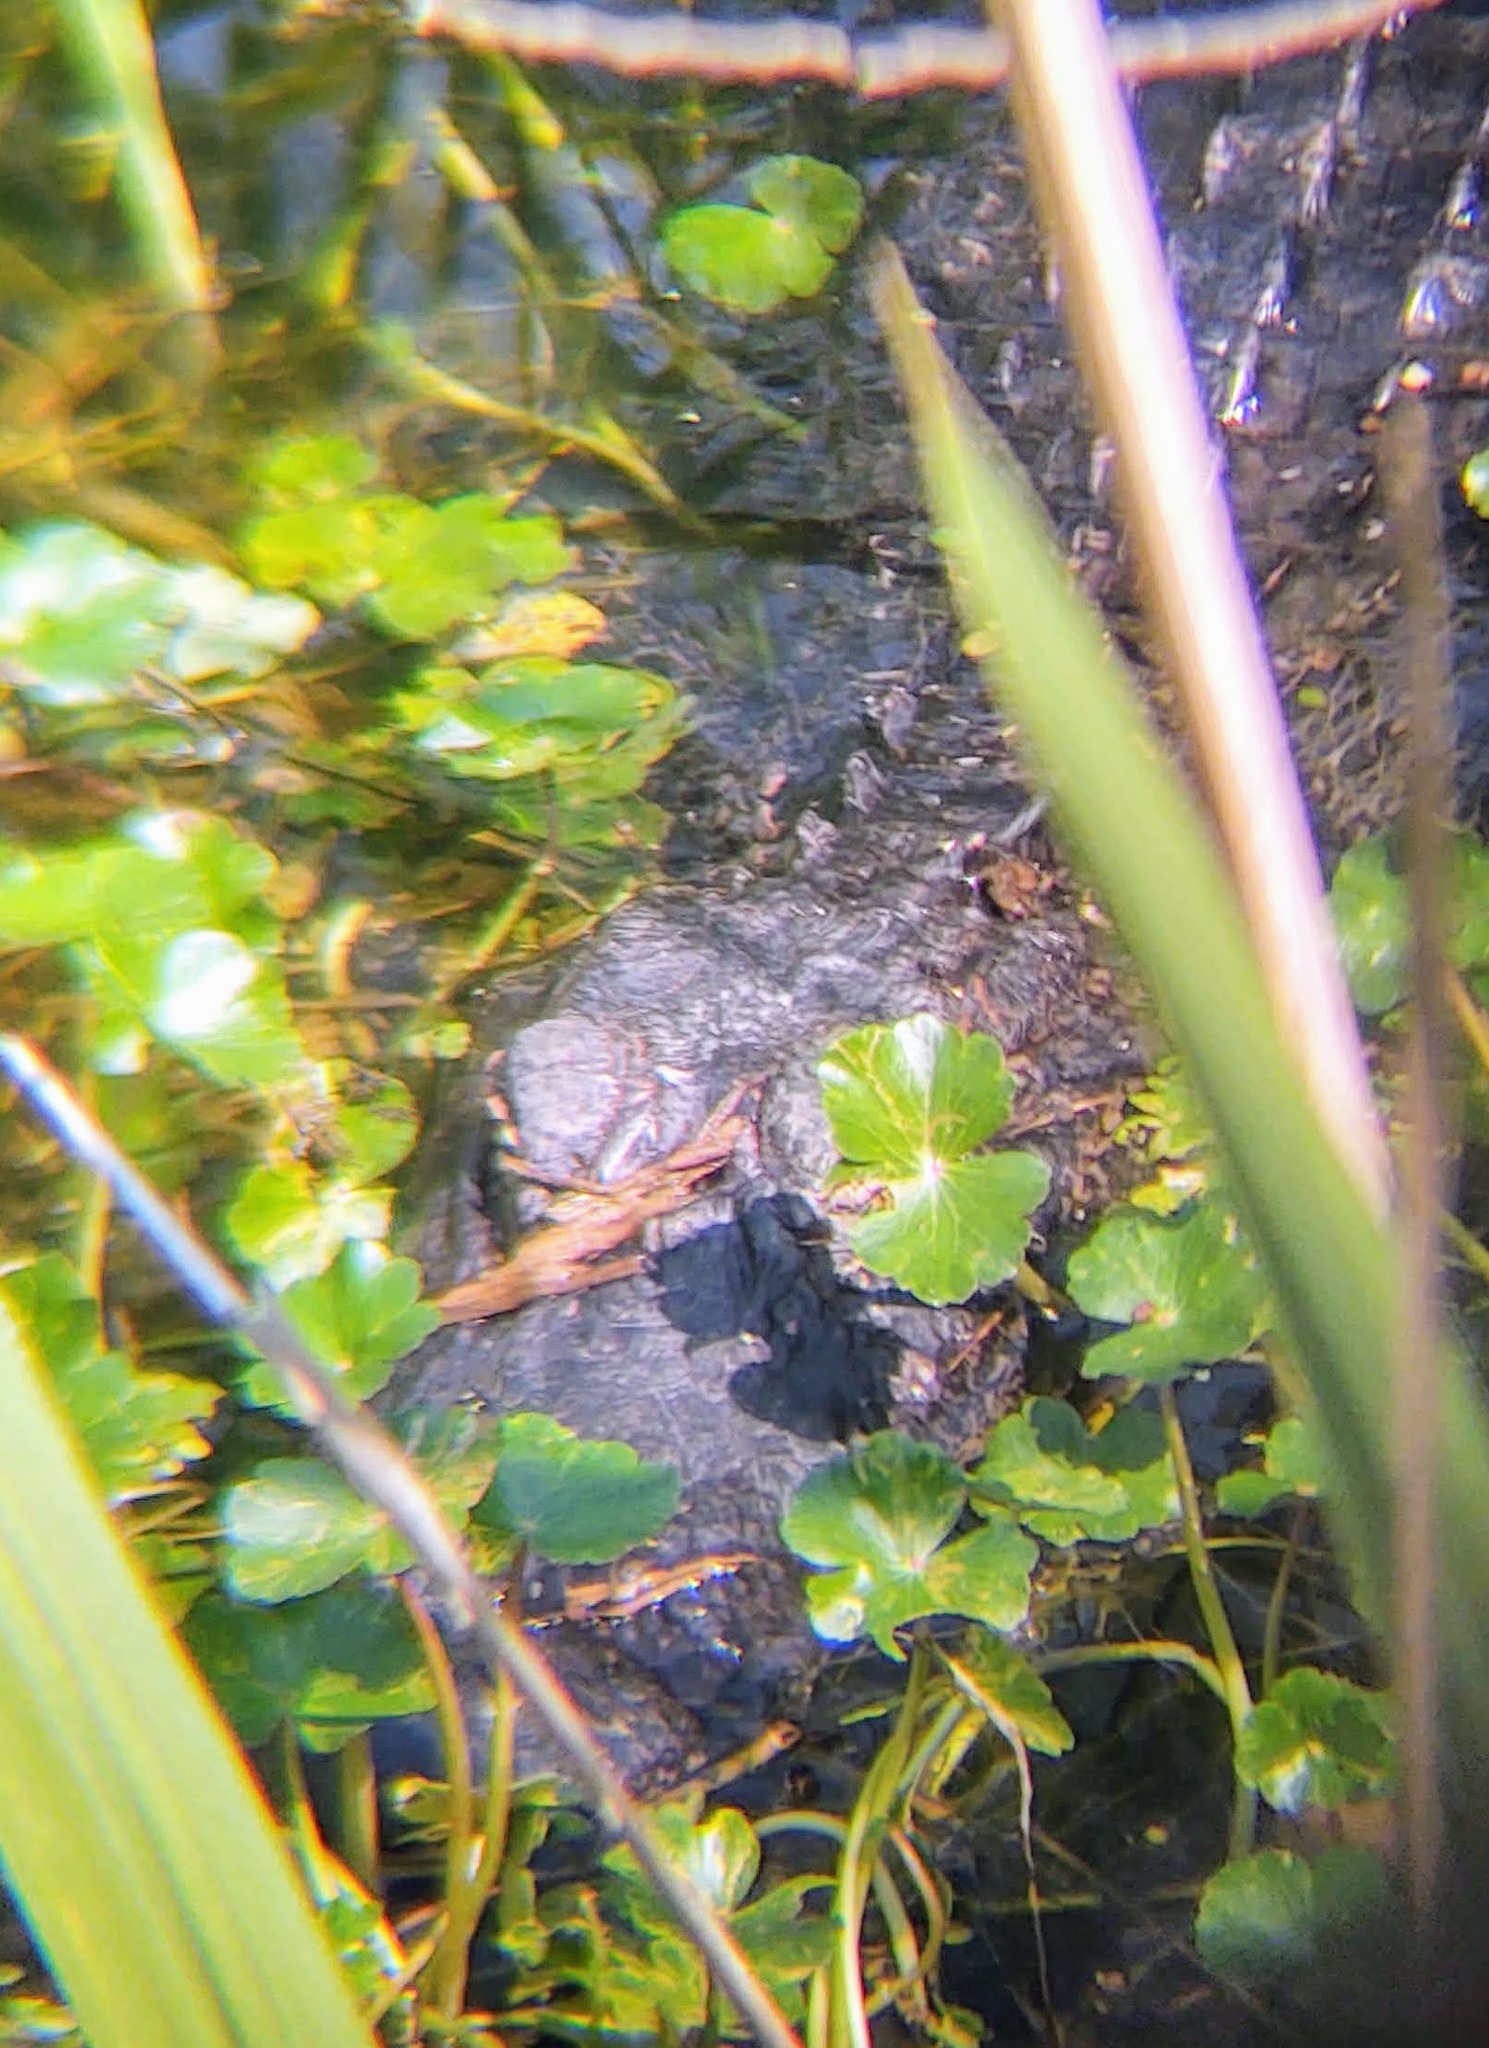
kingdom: Animalia
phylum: Chordata
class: Crocodylia
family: Alligatoridae
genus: Alligator
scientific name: Alligator mississippiensis
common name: American alligator
